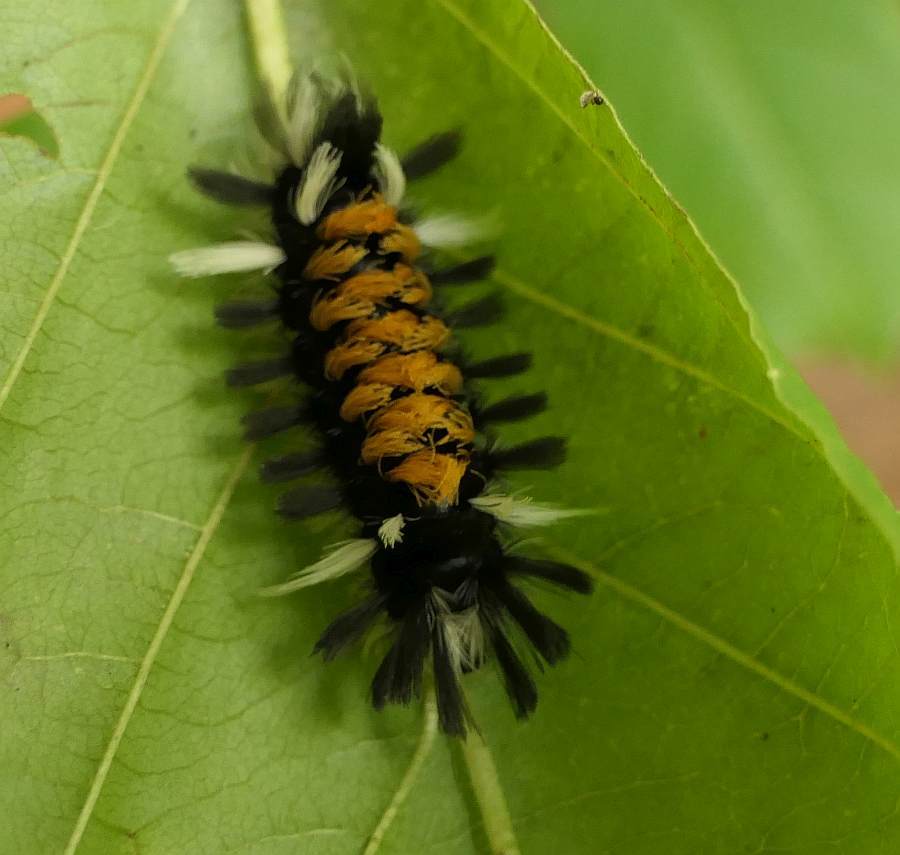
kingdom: Animalia
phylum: Arthropoda
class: Insecta
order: Lepidoptera
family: Erebidae
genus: Euchaetes
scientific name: Euchaetes egle
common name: Milkweed tussock moth
